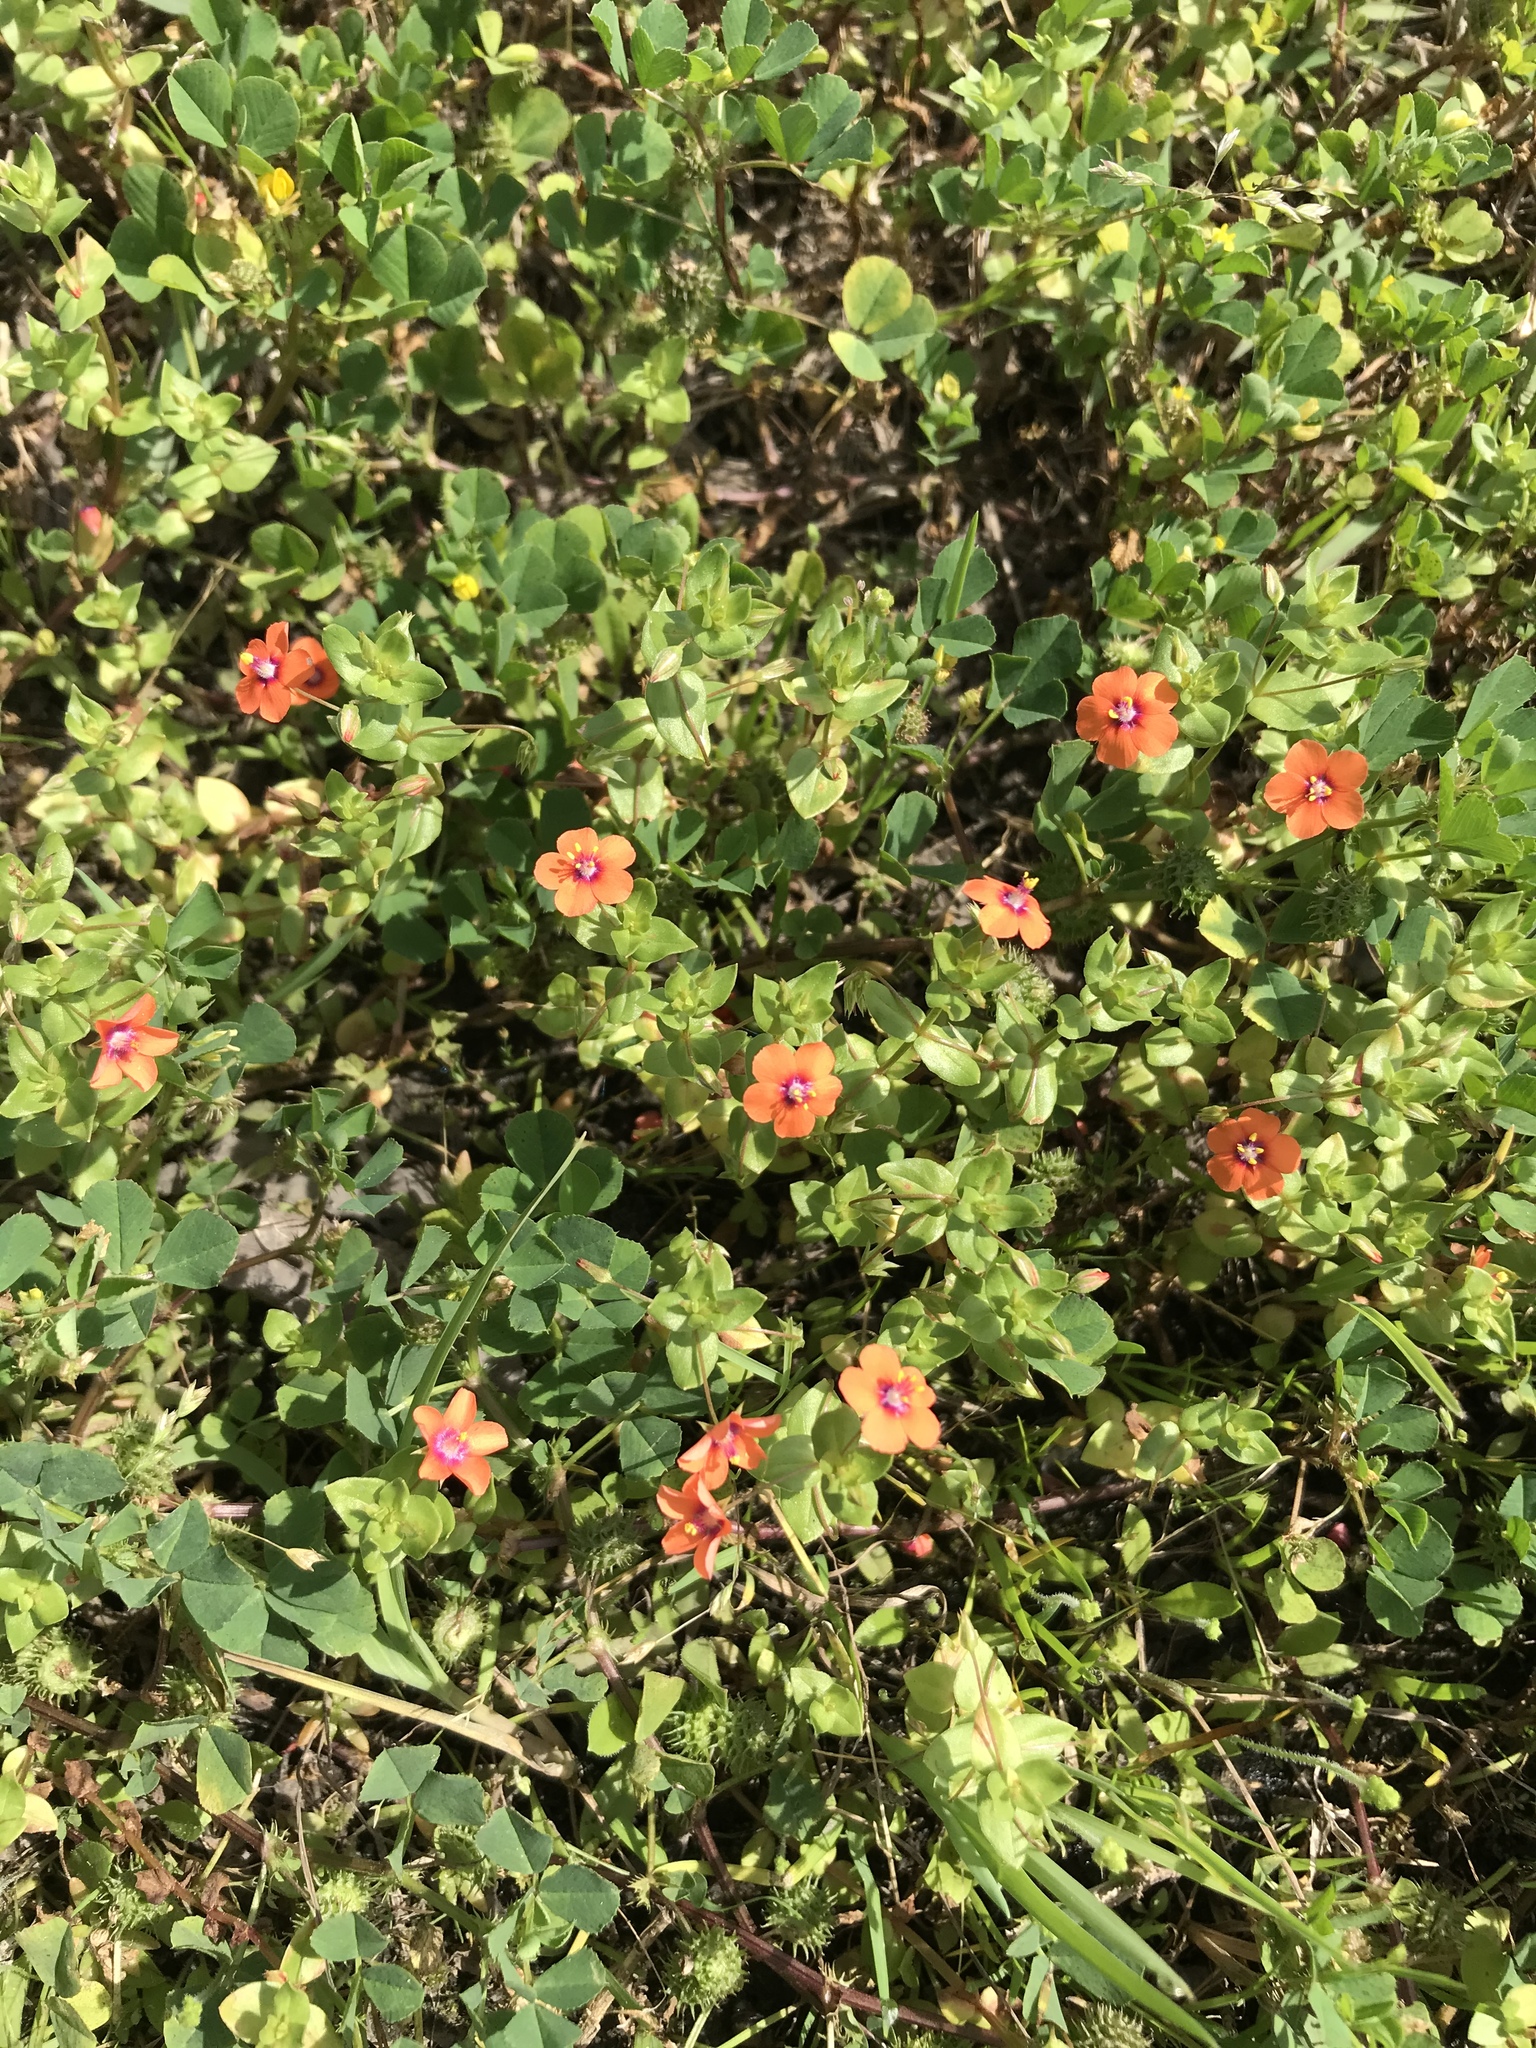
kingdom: Plantae
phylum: Tracheophyta
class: Magnoliopsida
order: Ericales
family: Primulaceae
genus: Lysimachia
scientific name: Lysimachia arvensis
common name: Scarlet pimpernel
